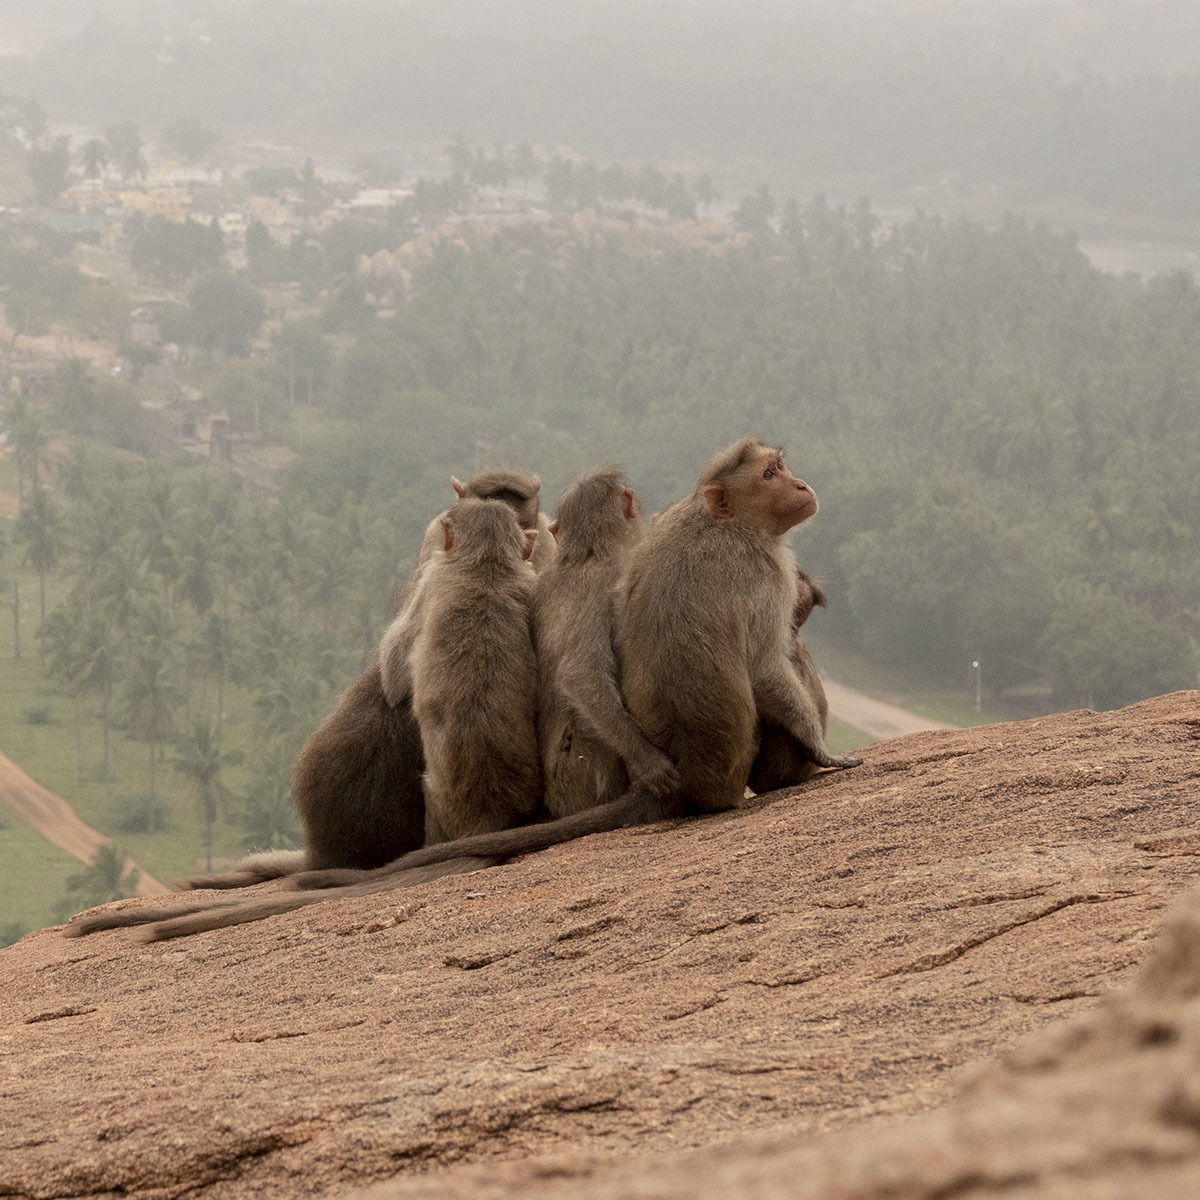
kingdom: Animalia
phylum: Chordata
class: Mammalia
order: Primates
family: Cercopithecidae
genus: Macaca
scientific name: Macaca radiata
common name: Bonnet macaque
